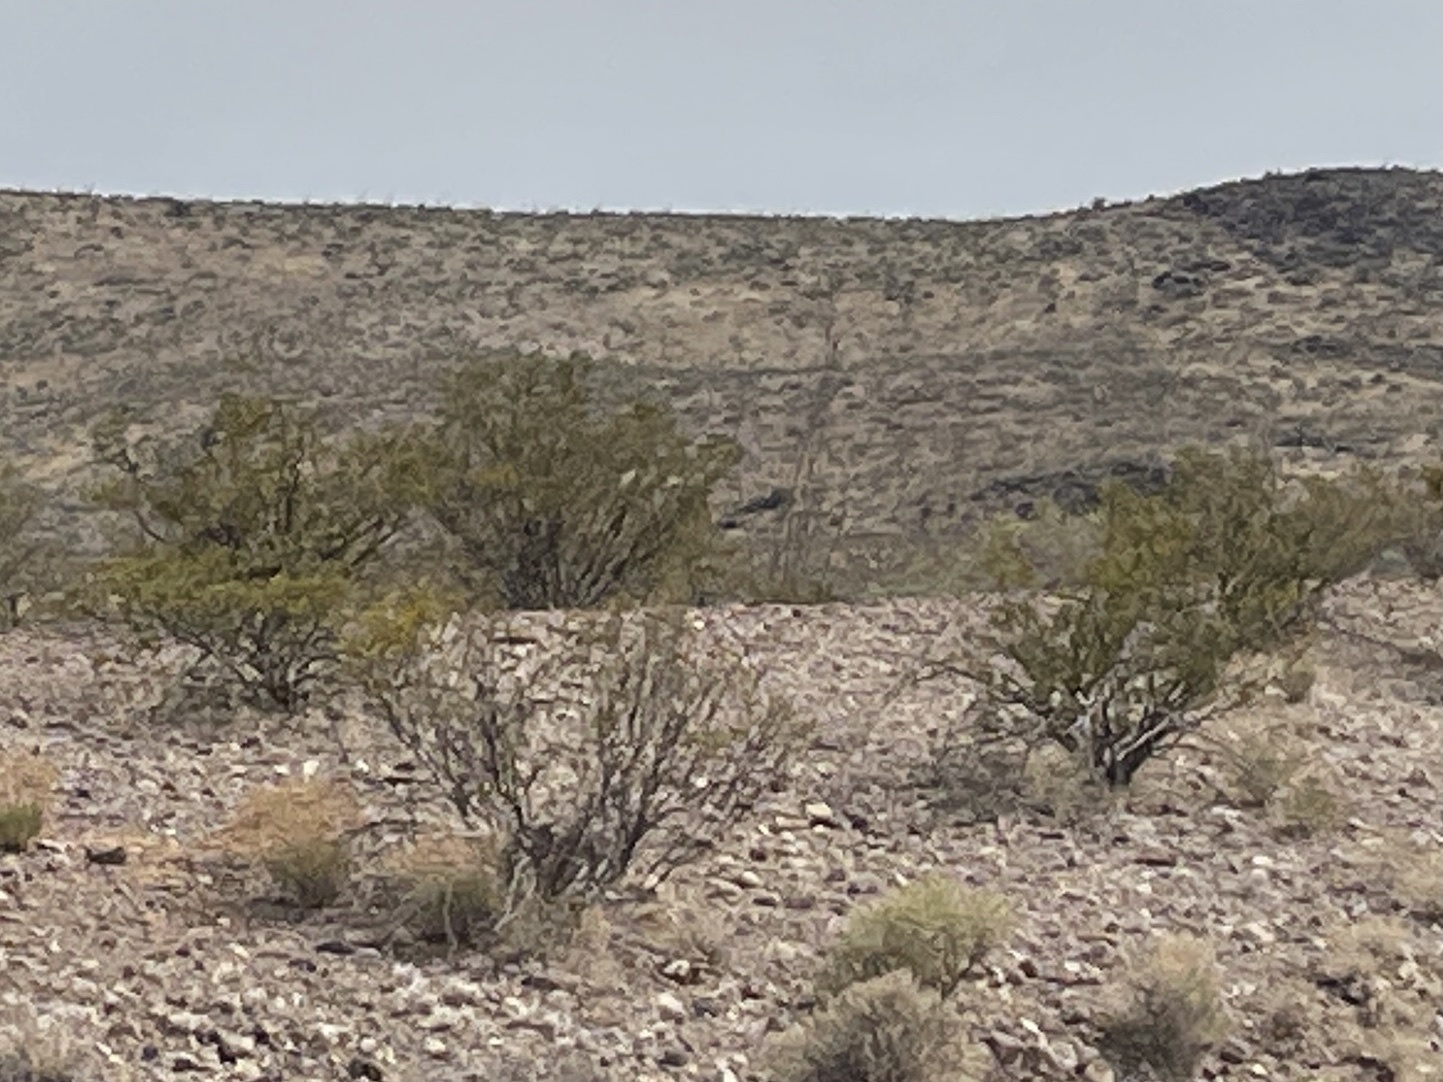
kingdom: Plantae
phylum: Tracheophyta
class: Magnoliopsida
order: Zygophyllales
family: Zygophyllaceae
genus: Larrea
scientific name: Larrea tridentata
